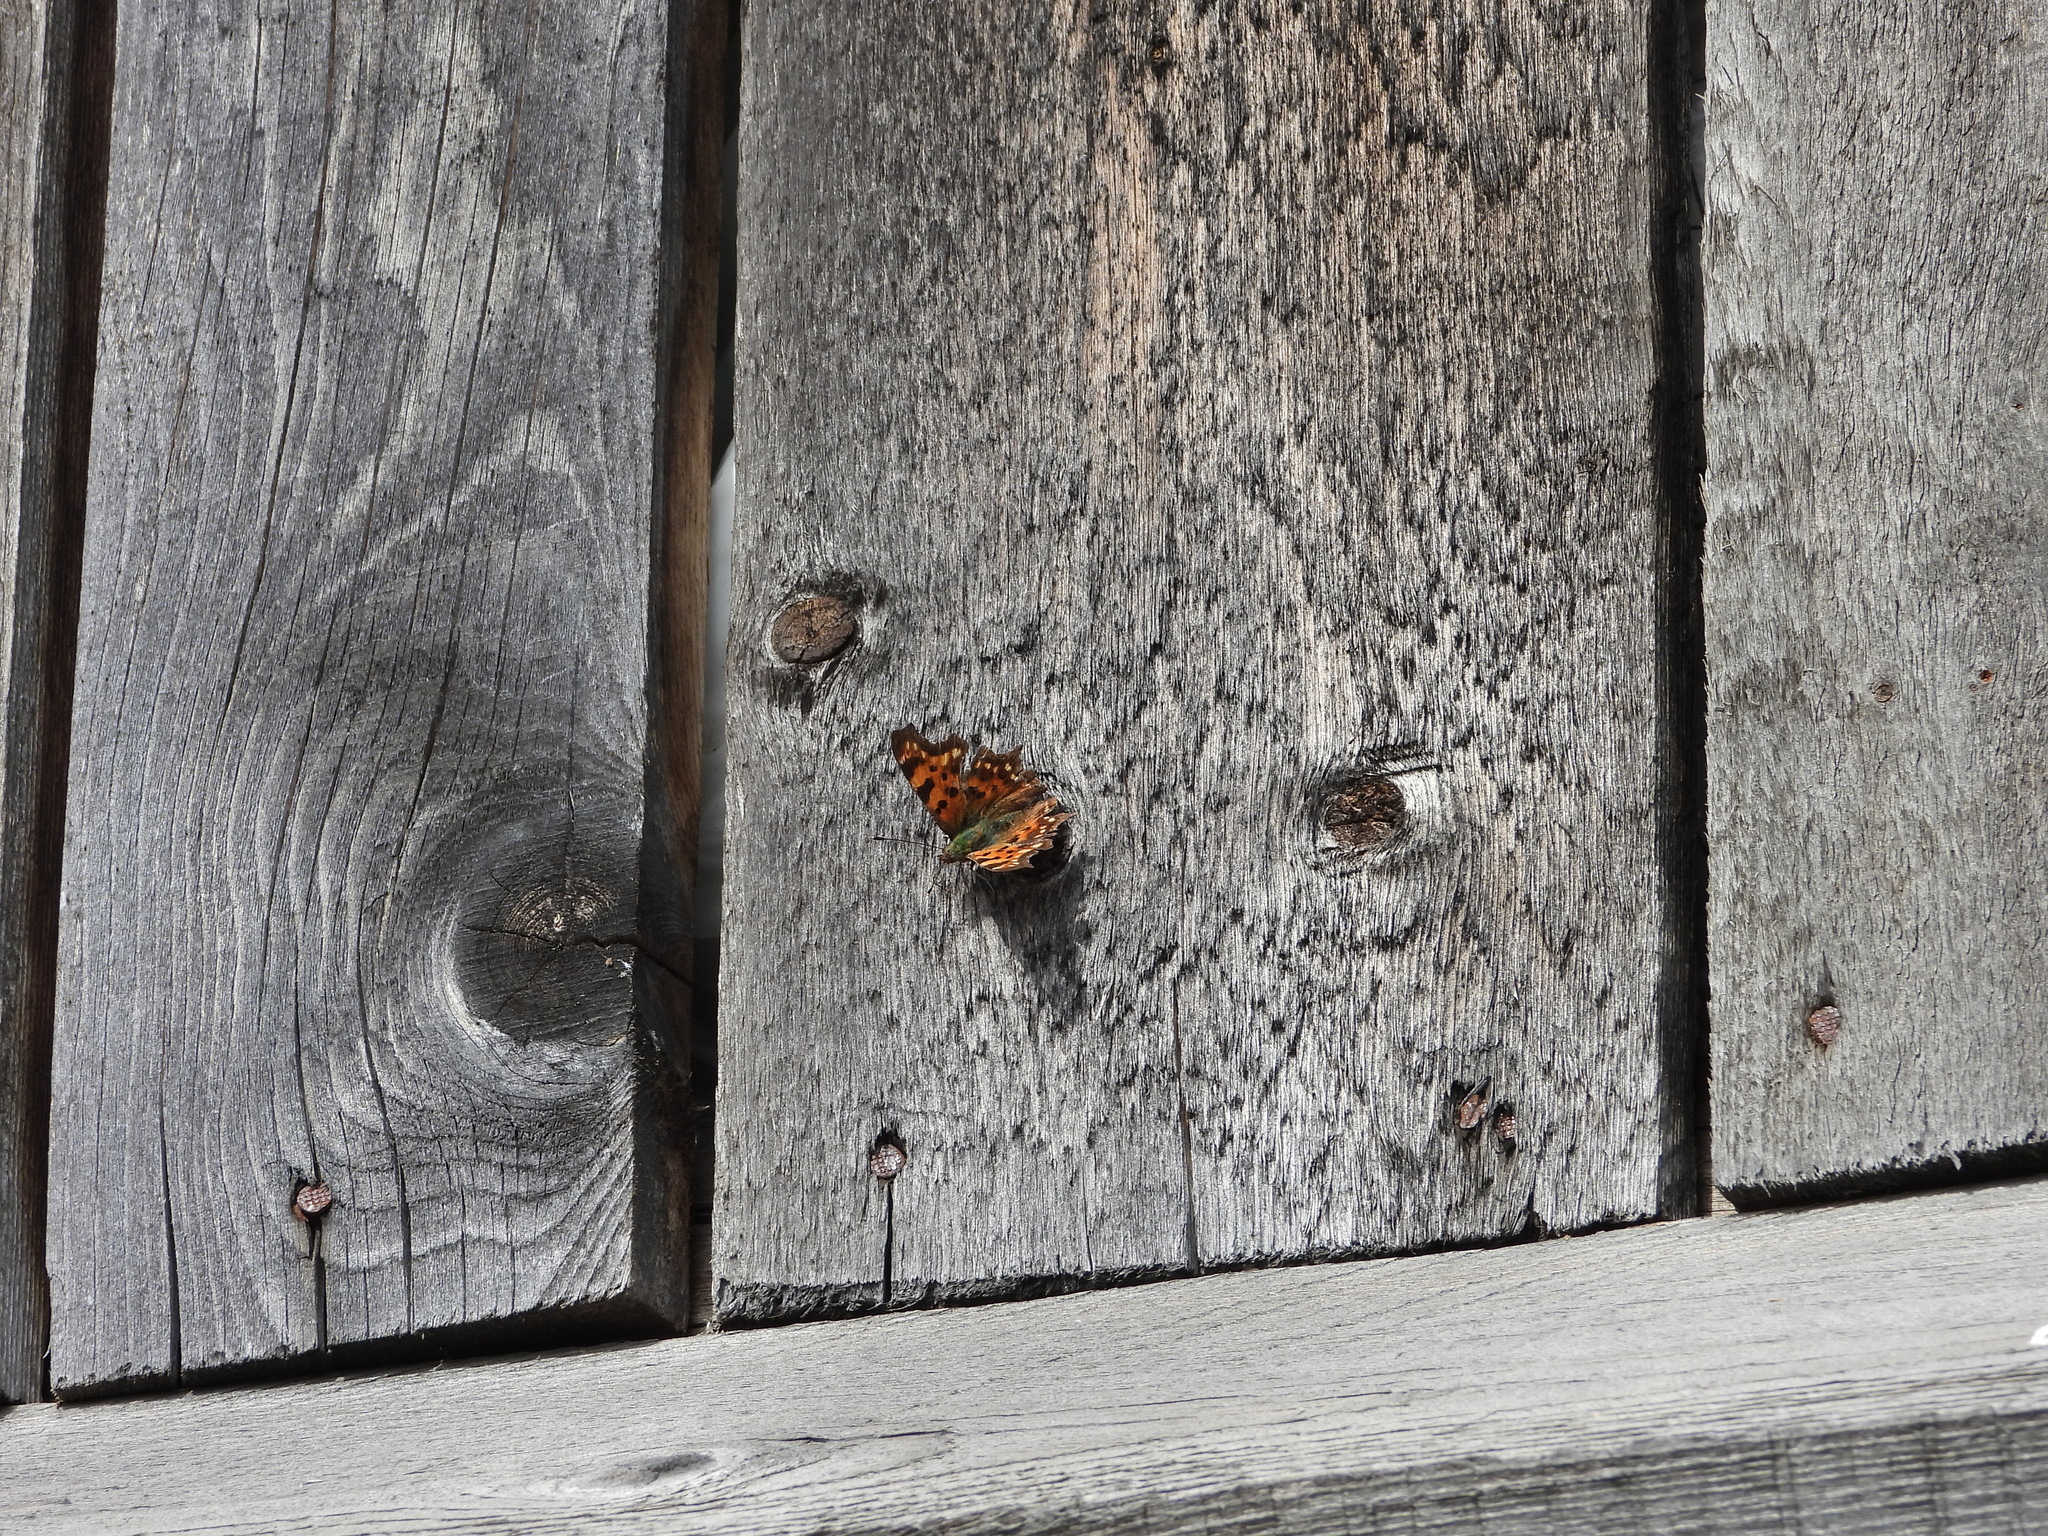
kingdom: Animalia
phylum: Arthropoda
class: Insecta
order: Lepidoptera
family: Nymphalidae
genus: Polygonia
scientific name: Polygonia c-album
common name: Comma
